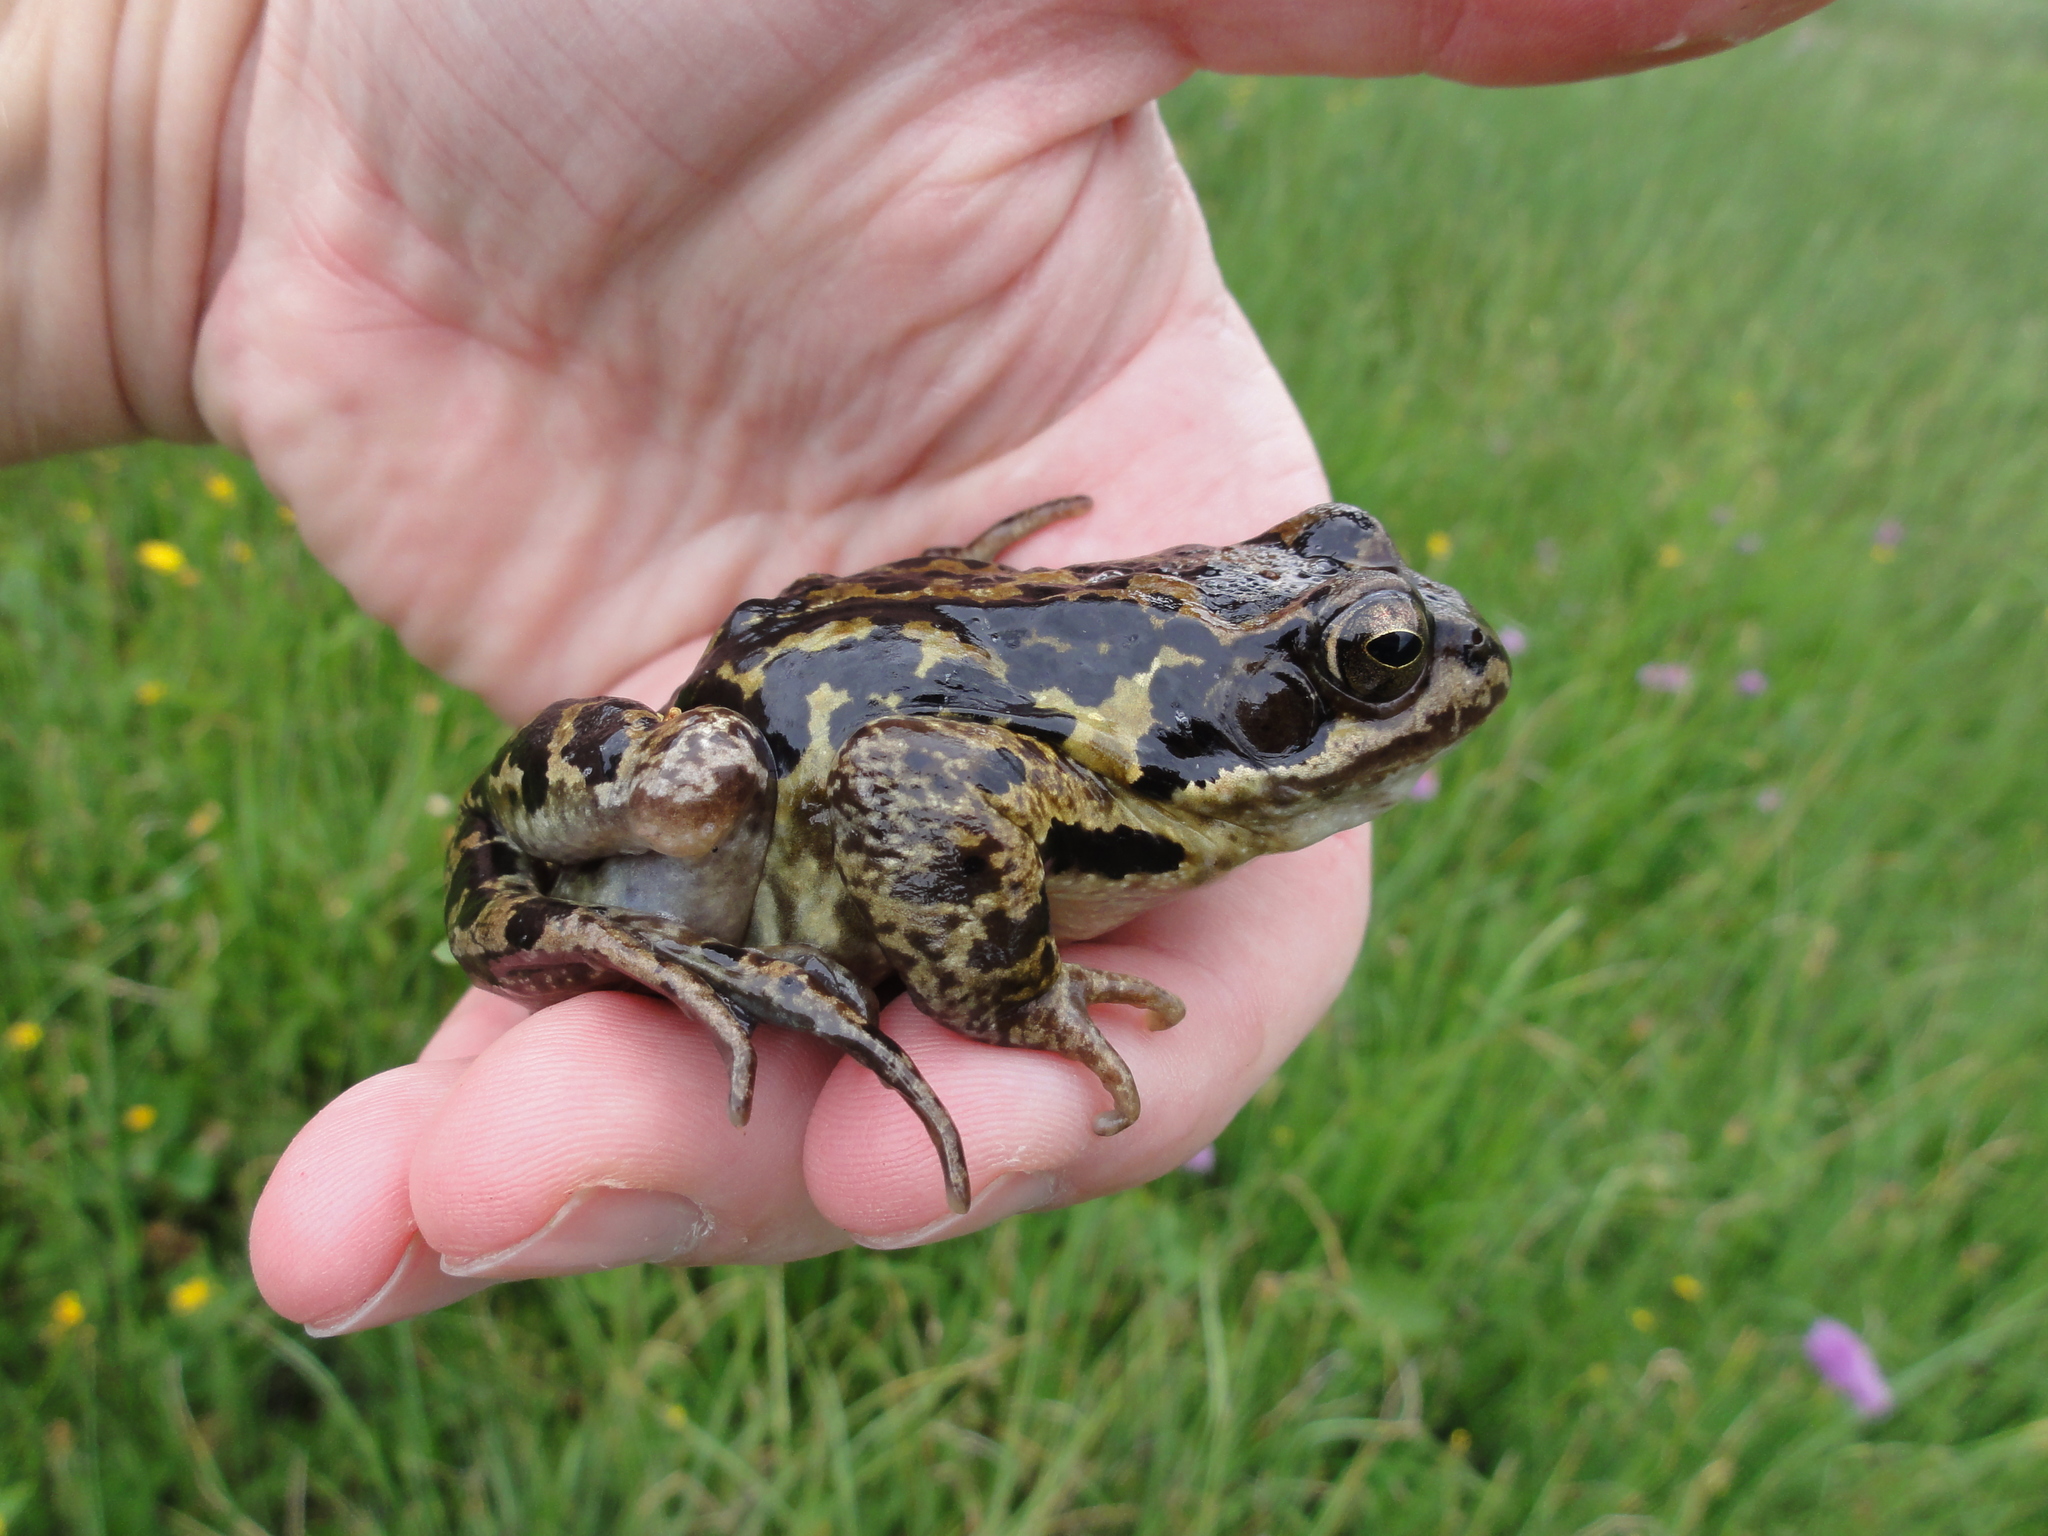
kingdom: Animalia
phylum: Chordata
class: Amphibia
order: Anura
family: Ranidae
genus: Rana
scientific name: Rana temporaria
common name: Common frog
